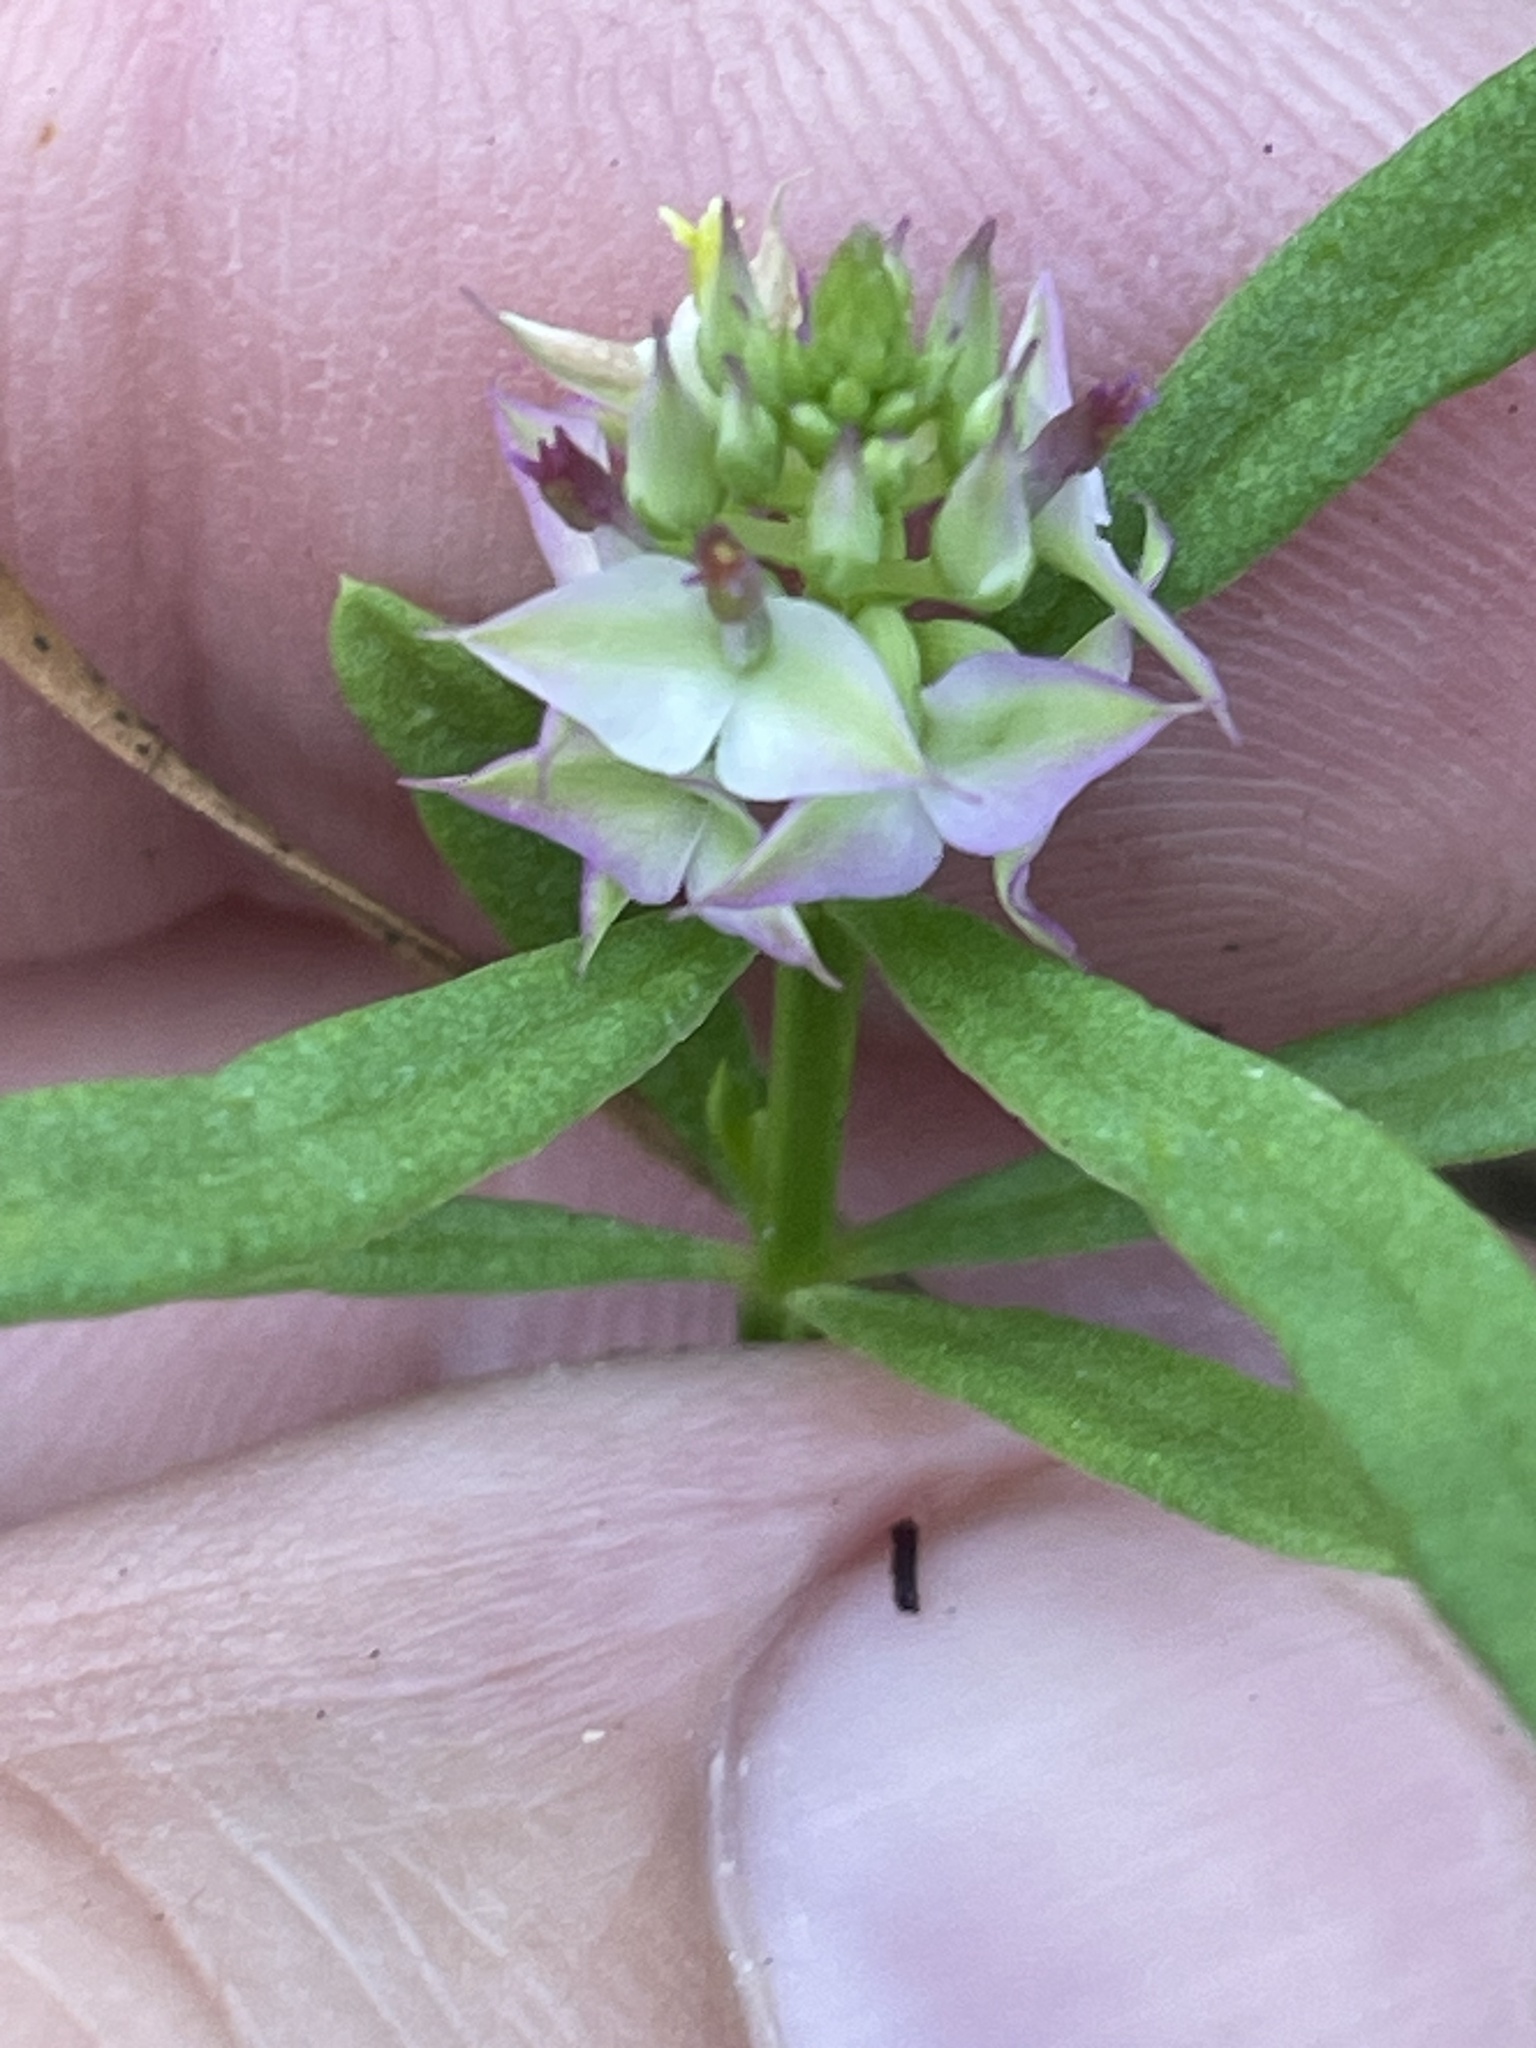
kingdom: Plantae
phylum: Tracheophyta
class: Magnoliopsida
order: Fabales
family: Polygalaceae
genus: Polygala
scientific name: Polygala cruciata
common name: Drumheads
